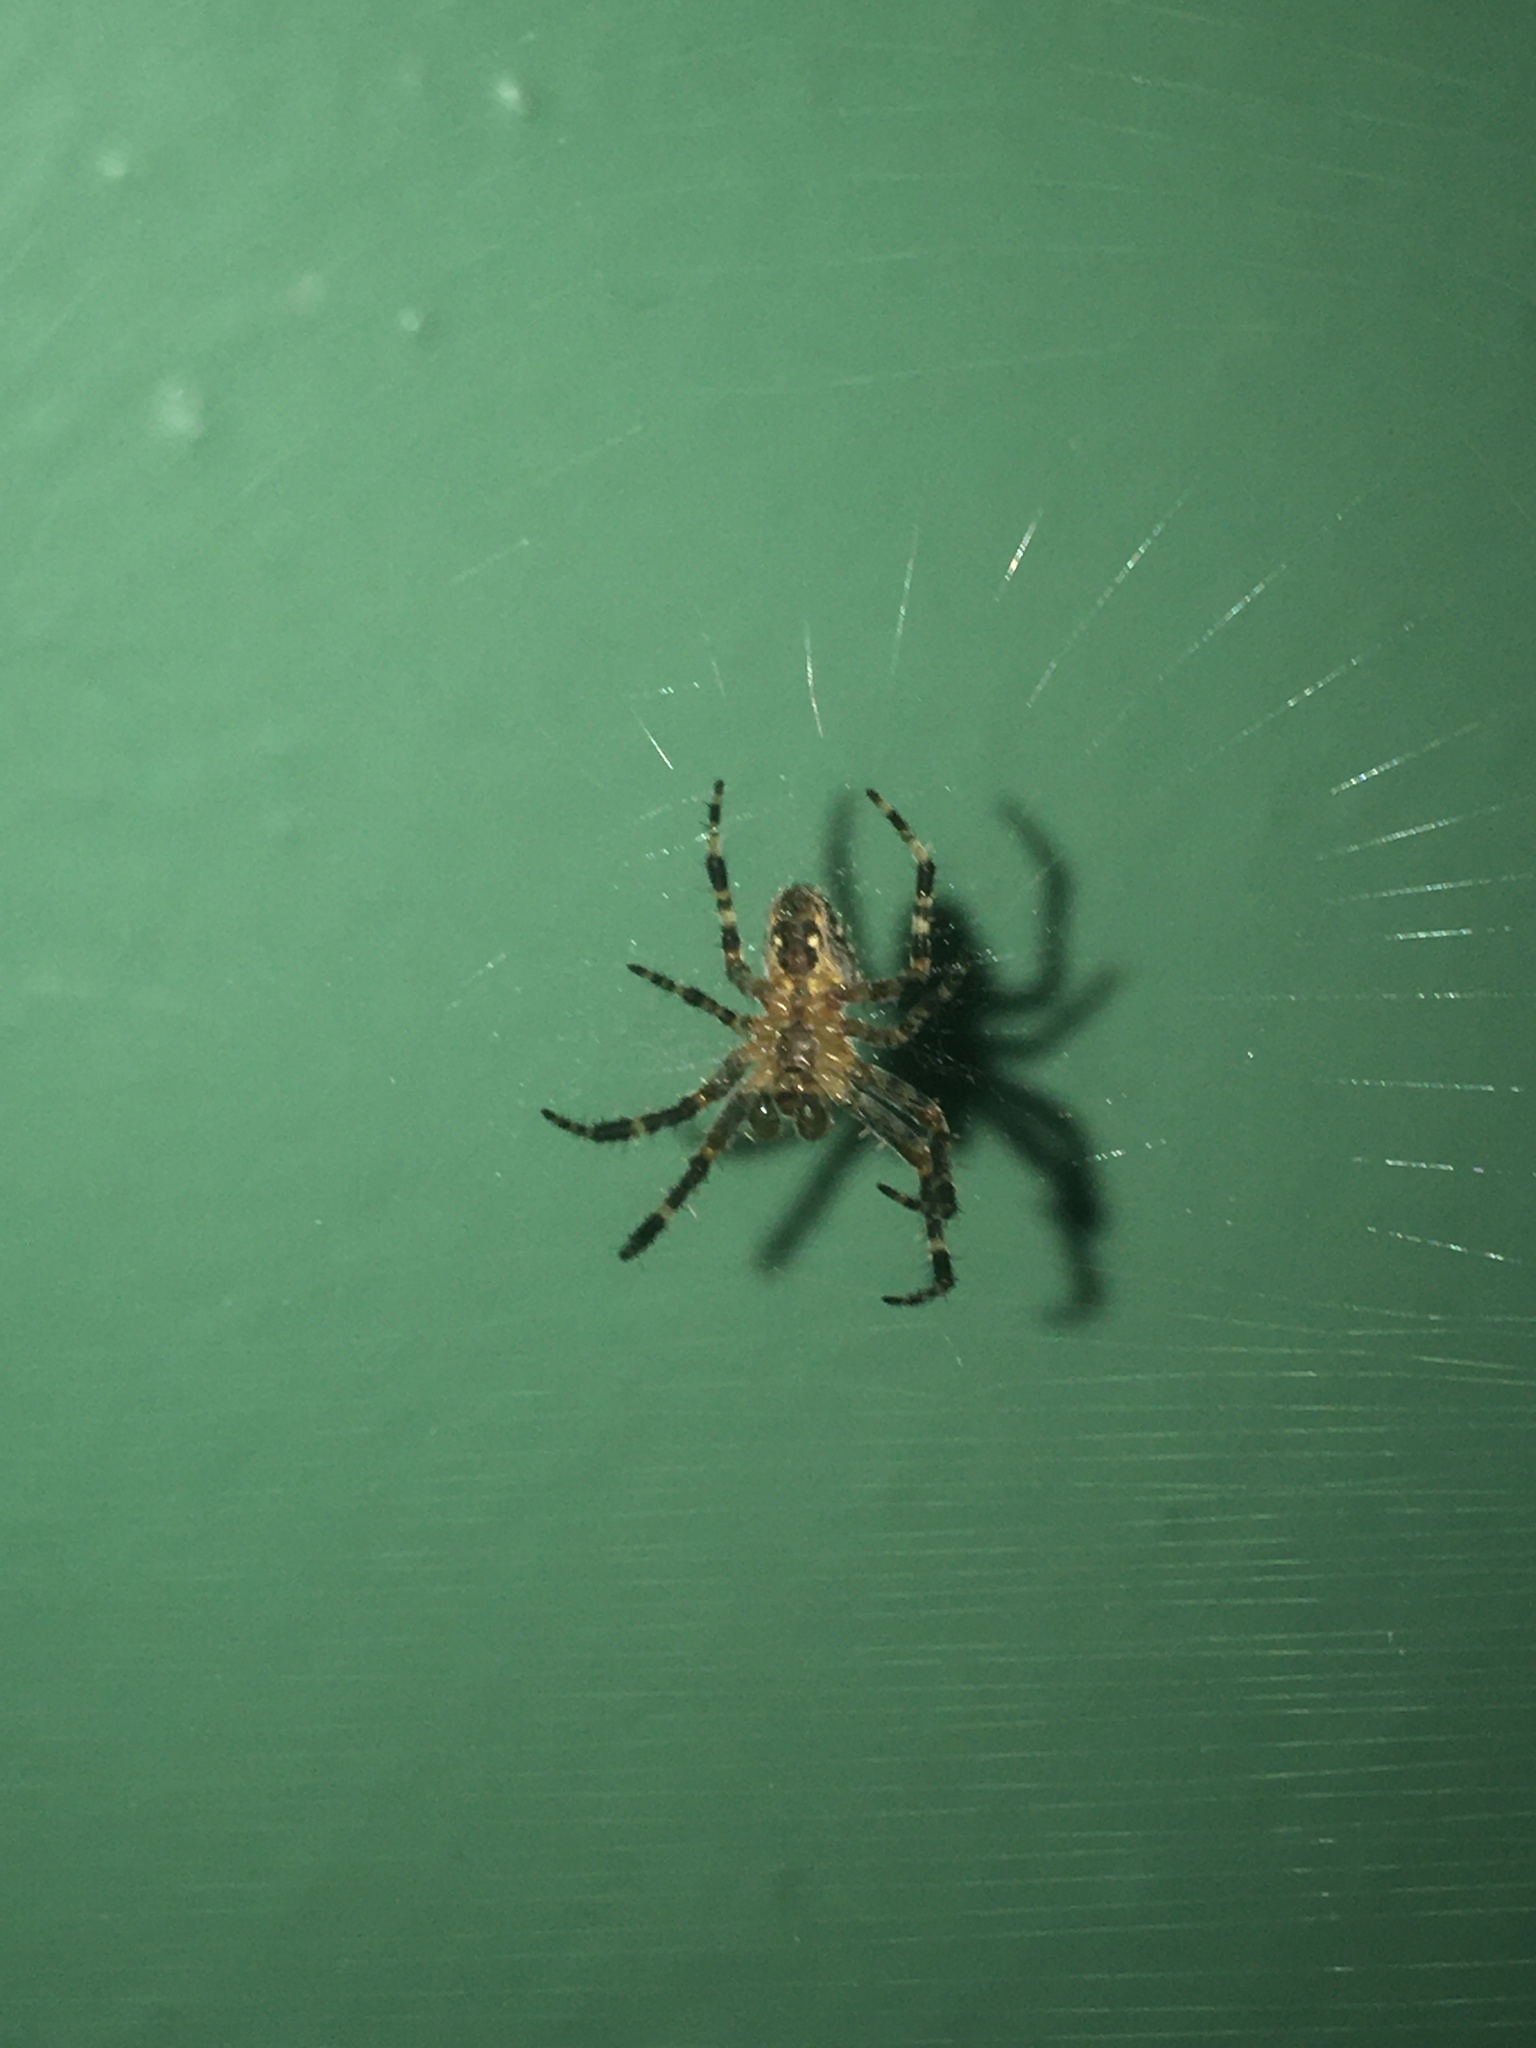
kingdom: Animalia
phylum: Arthropoda
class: Arachnida
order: Araneae
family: Araneidae
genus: Araneus
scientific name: Araneus diadematus
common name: Cross orbweaver
